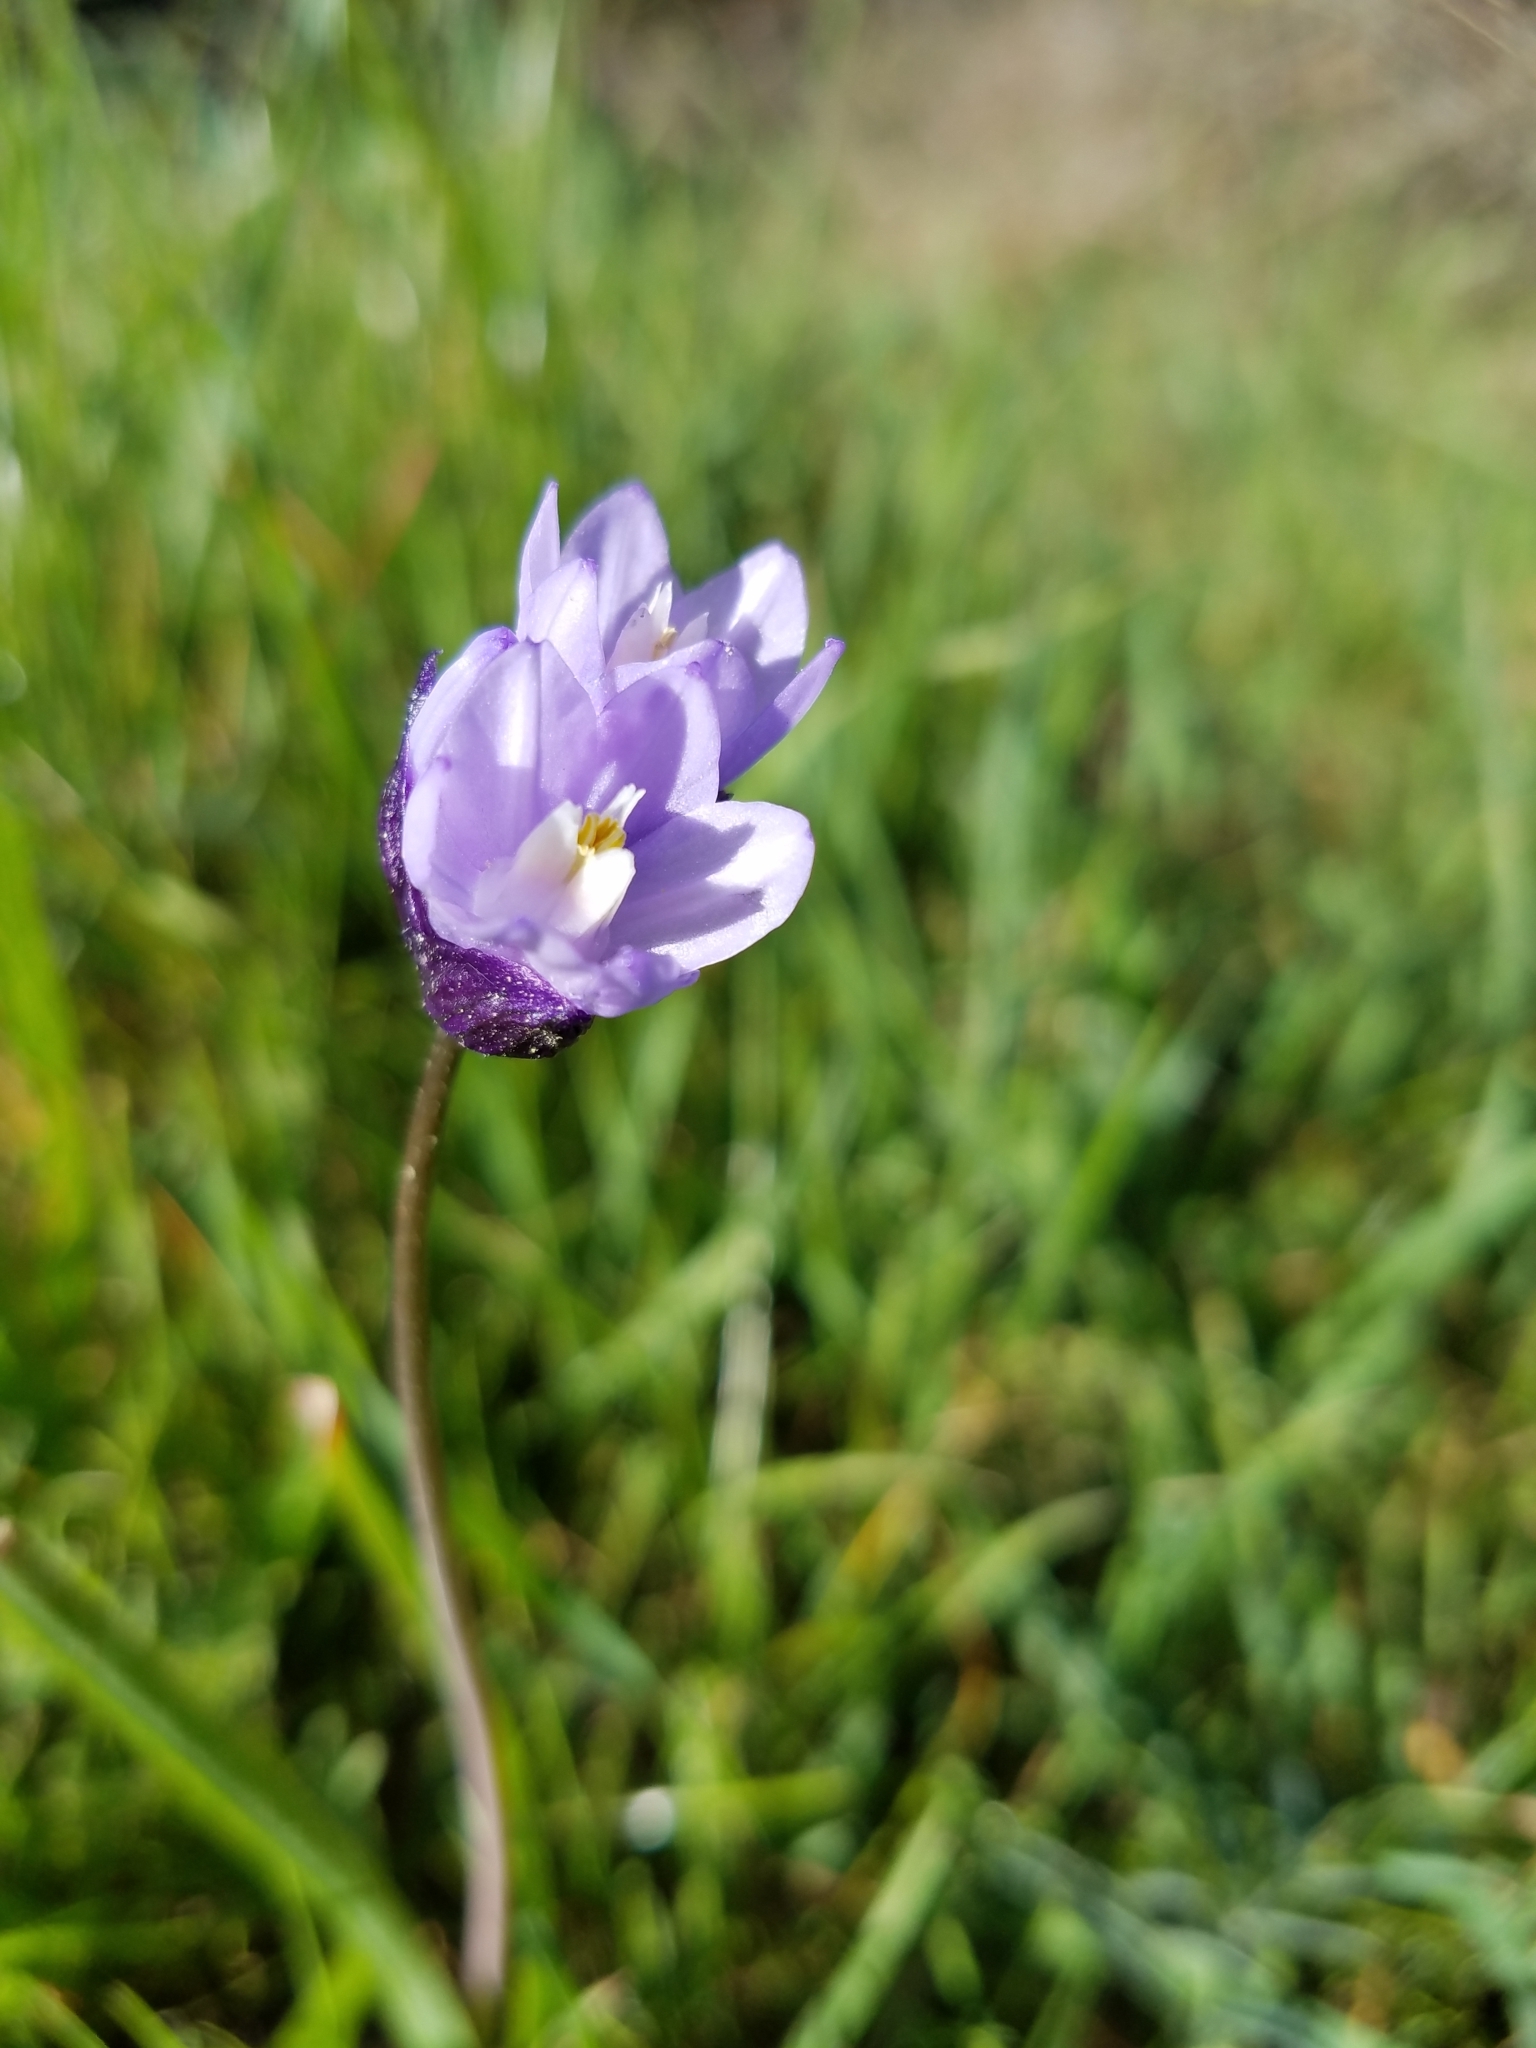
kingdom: Plantae
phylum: Tracheophyta
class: Liliopsida
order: Asparagales
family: Asparagaceae
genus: Dipterostemon
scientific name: Dipterostemon capitatus
